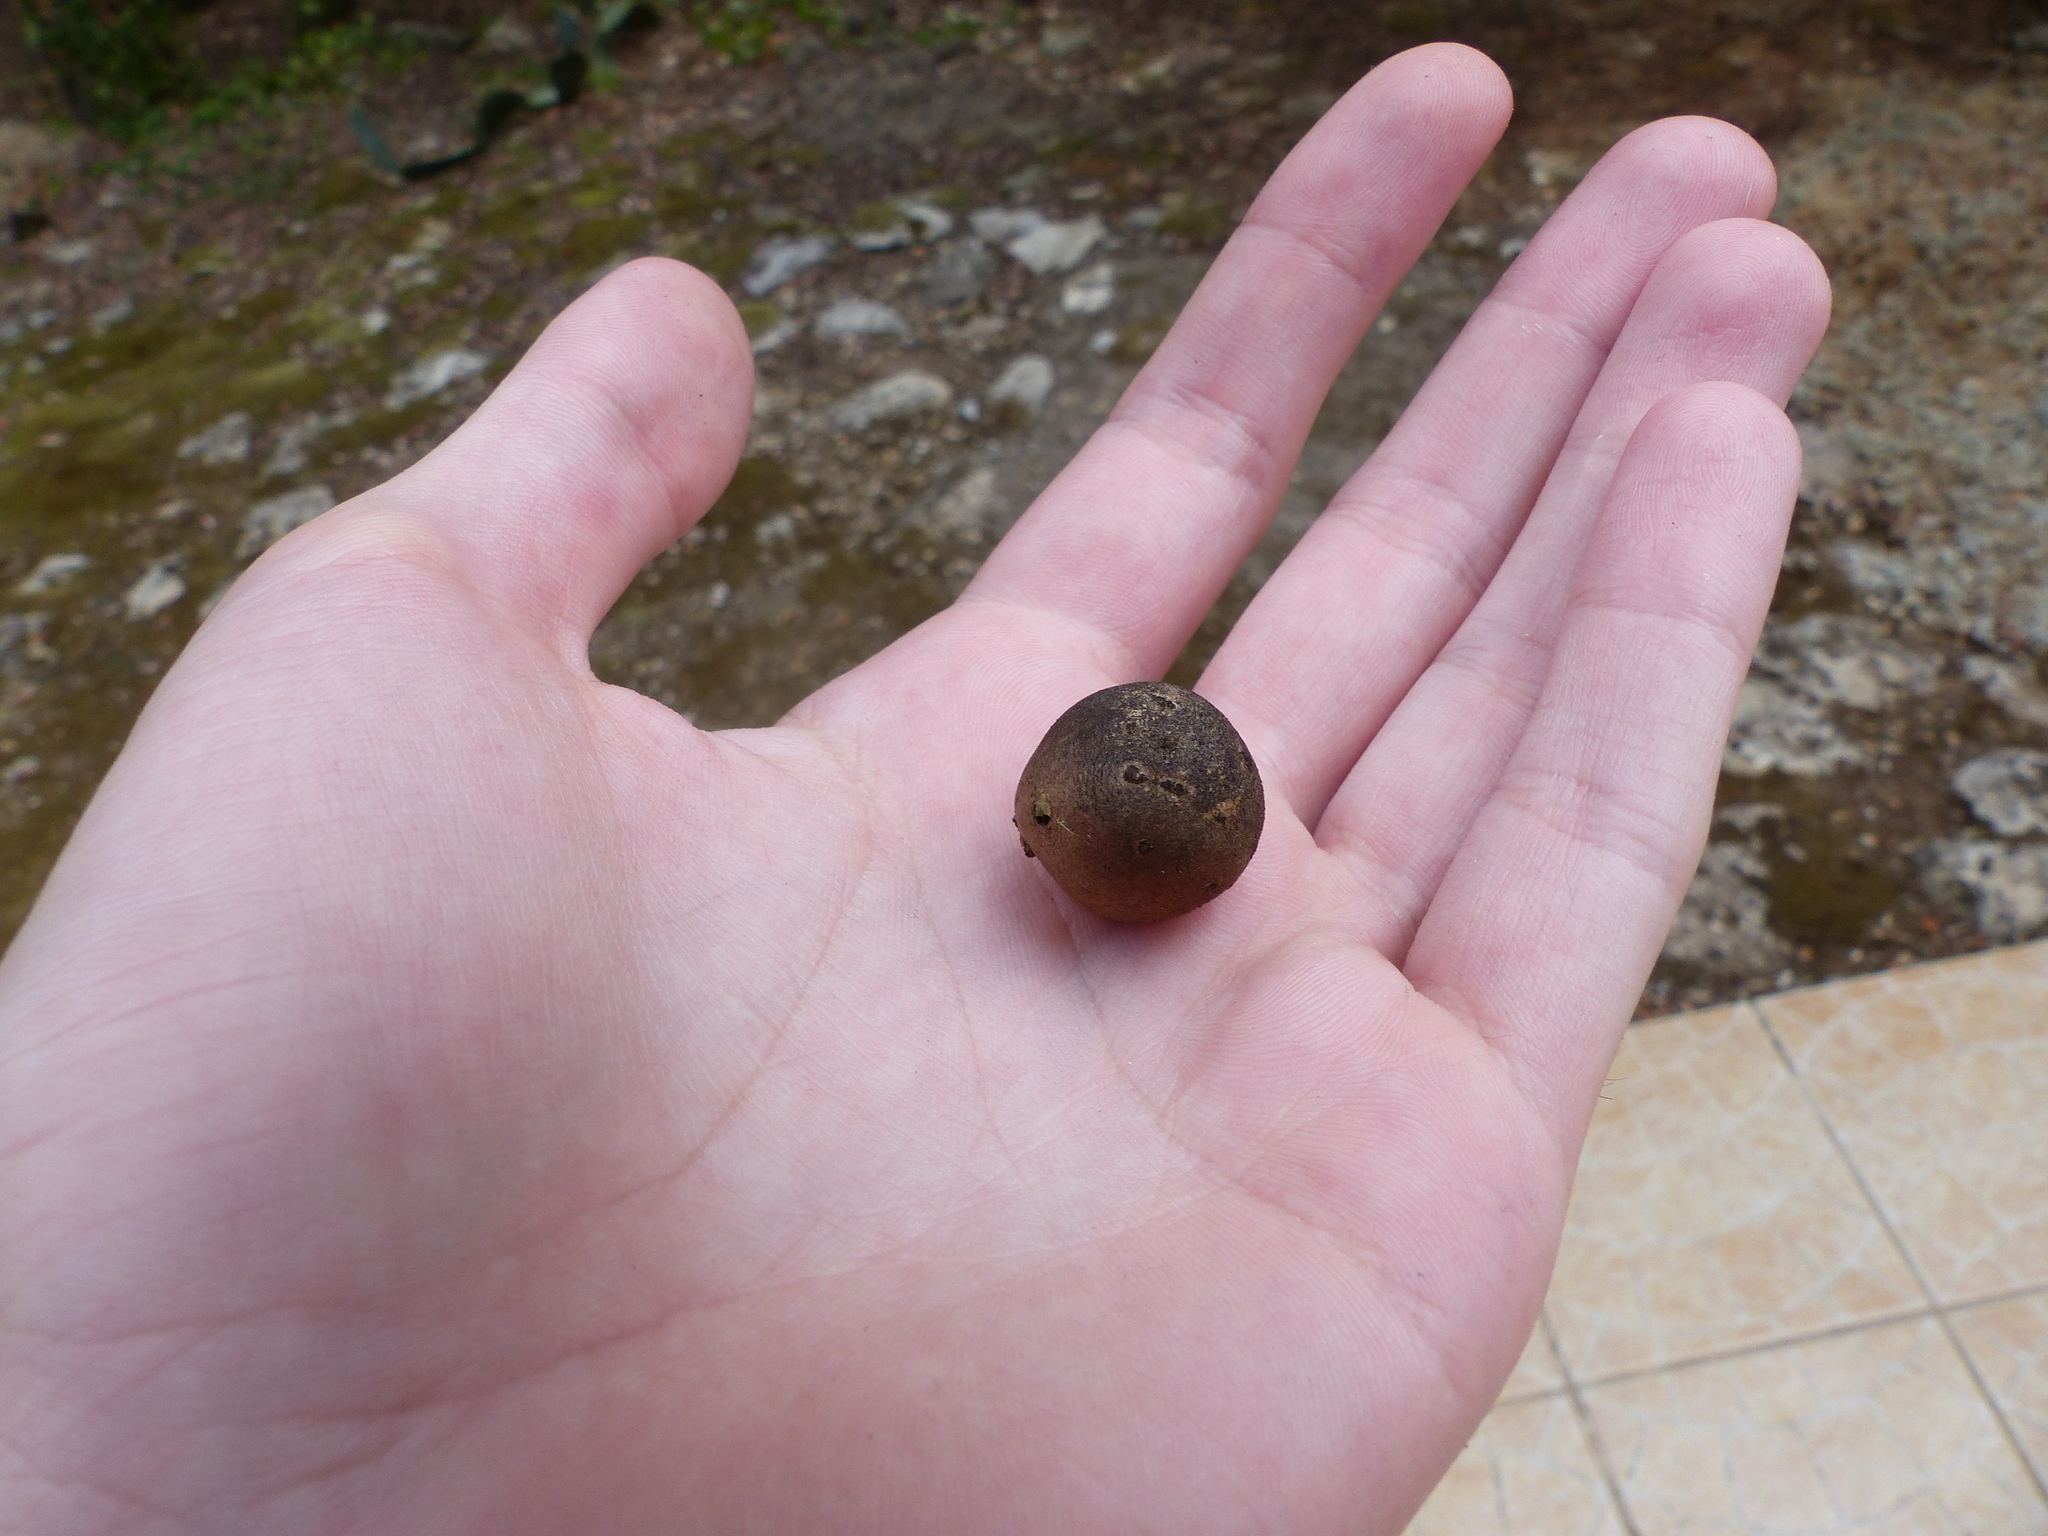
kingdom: Animalia
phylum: Arthropoda
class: Insecta
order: Hymenoptera
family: Cynipidae
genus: Andricus
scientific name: Andricus kollari
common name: Marble gall
